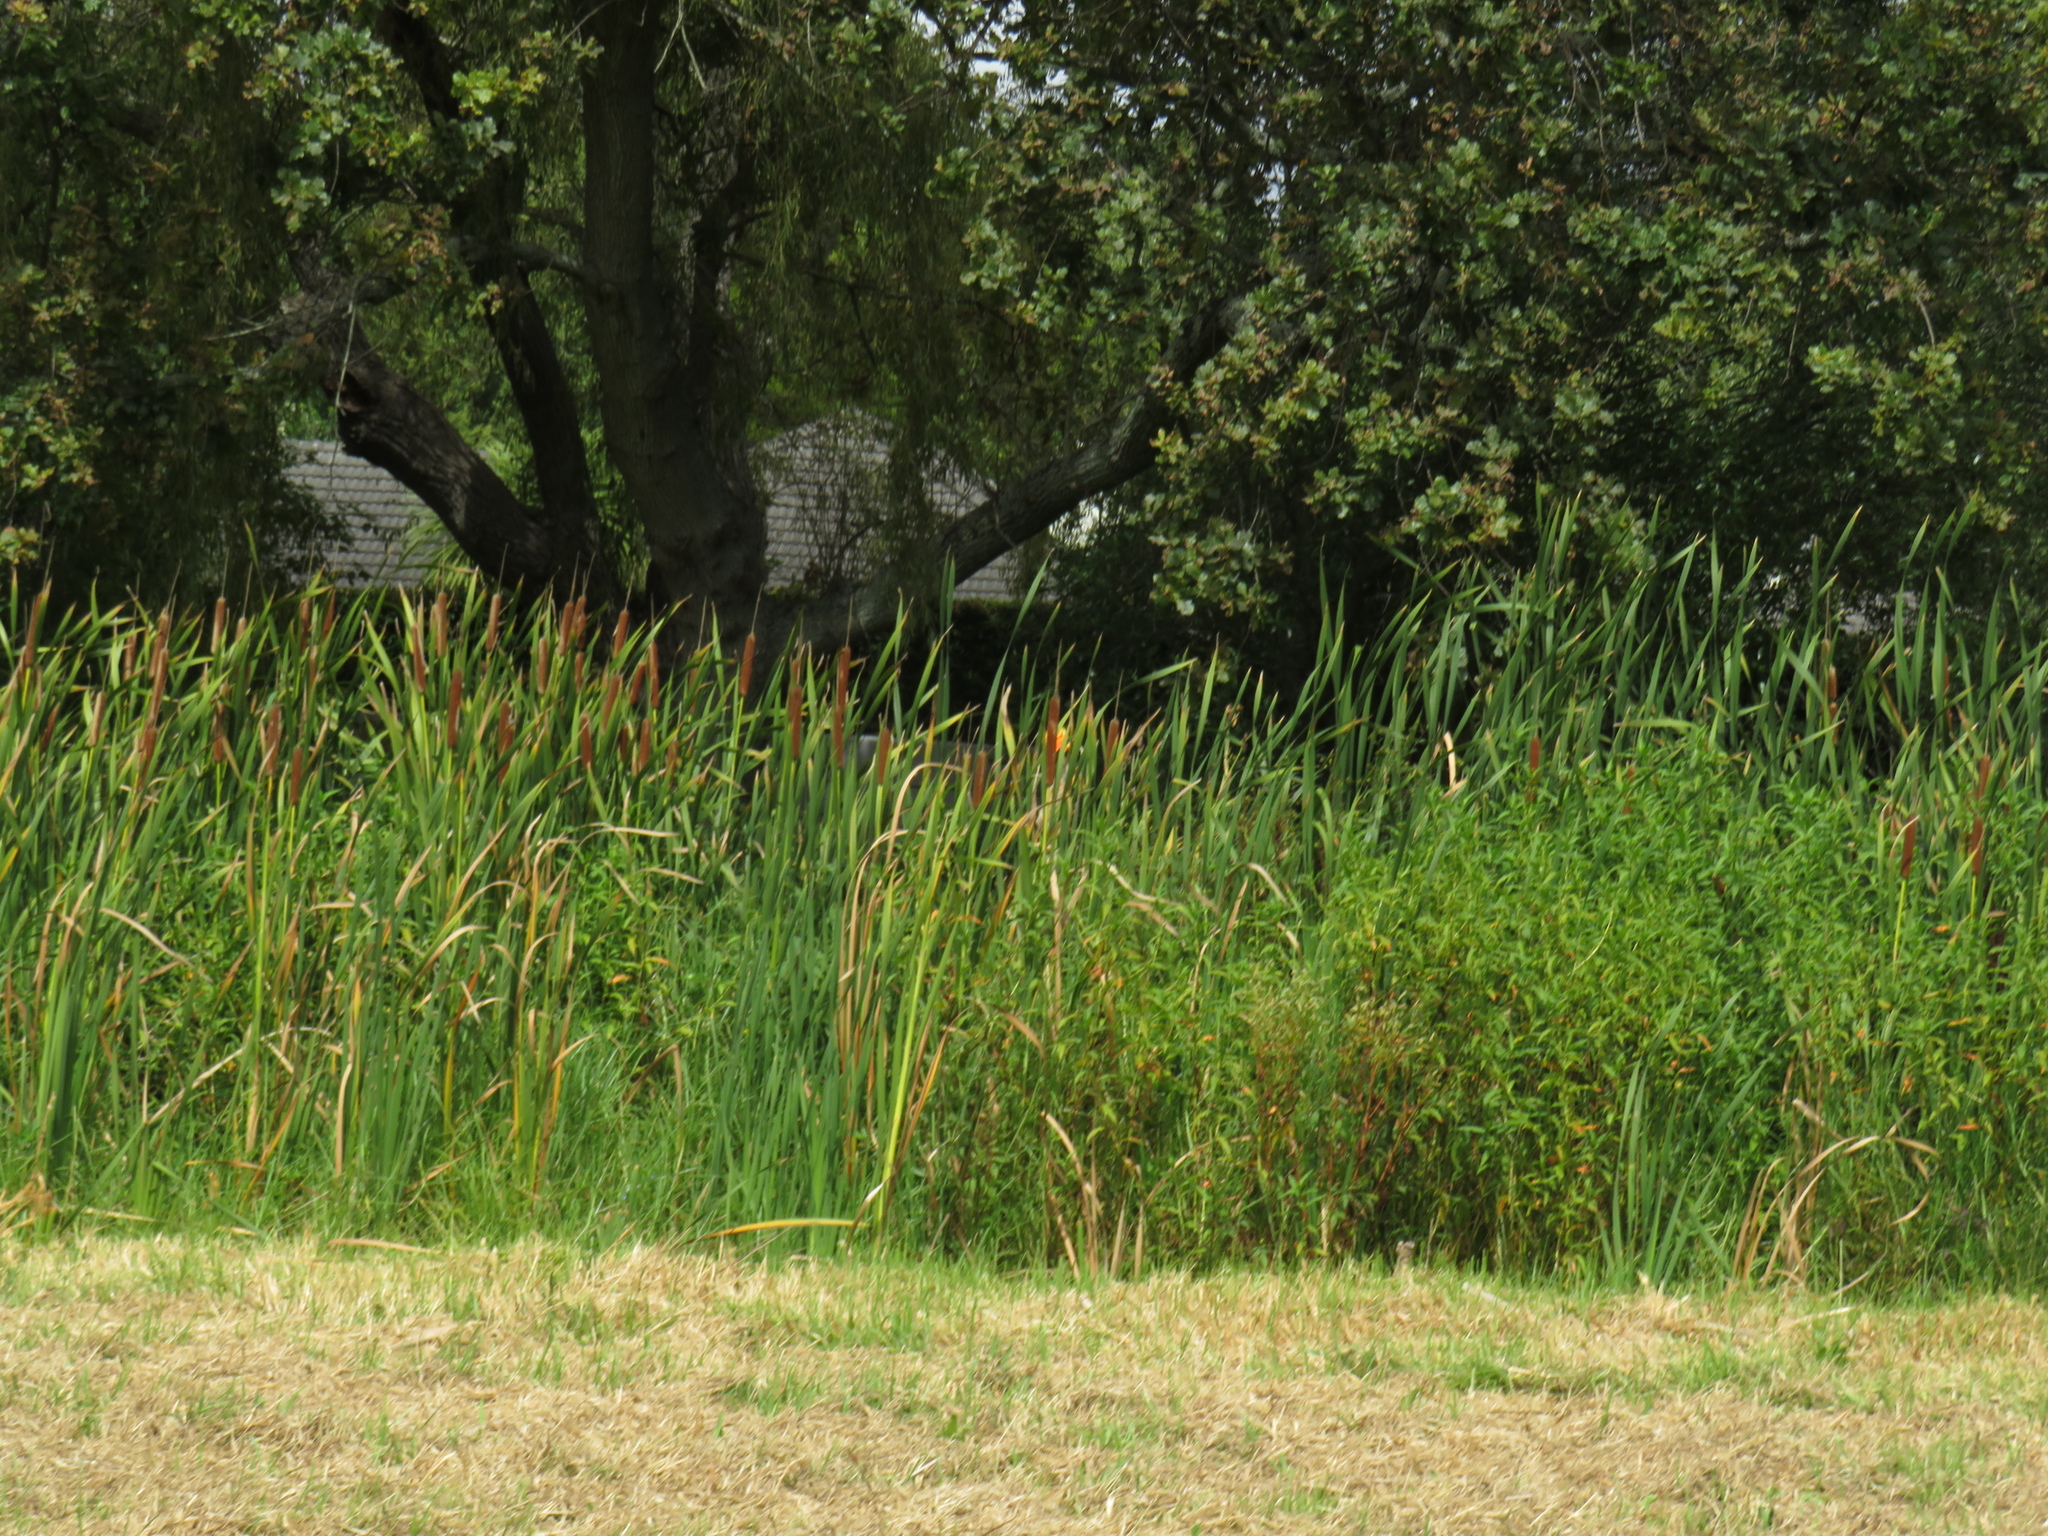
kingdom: Plantae
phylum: Tracheophyta
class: Liliopsida
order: Poales
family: Typhaceae
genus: Typha
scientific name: Typha capensis
